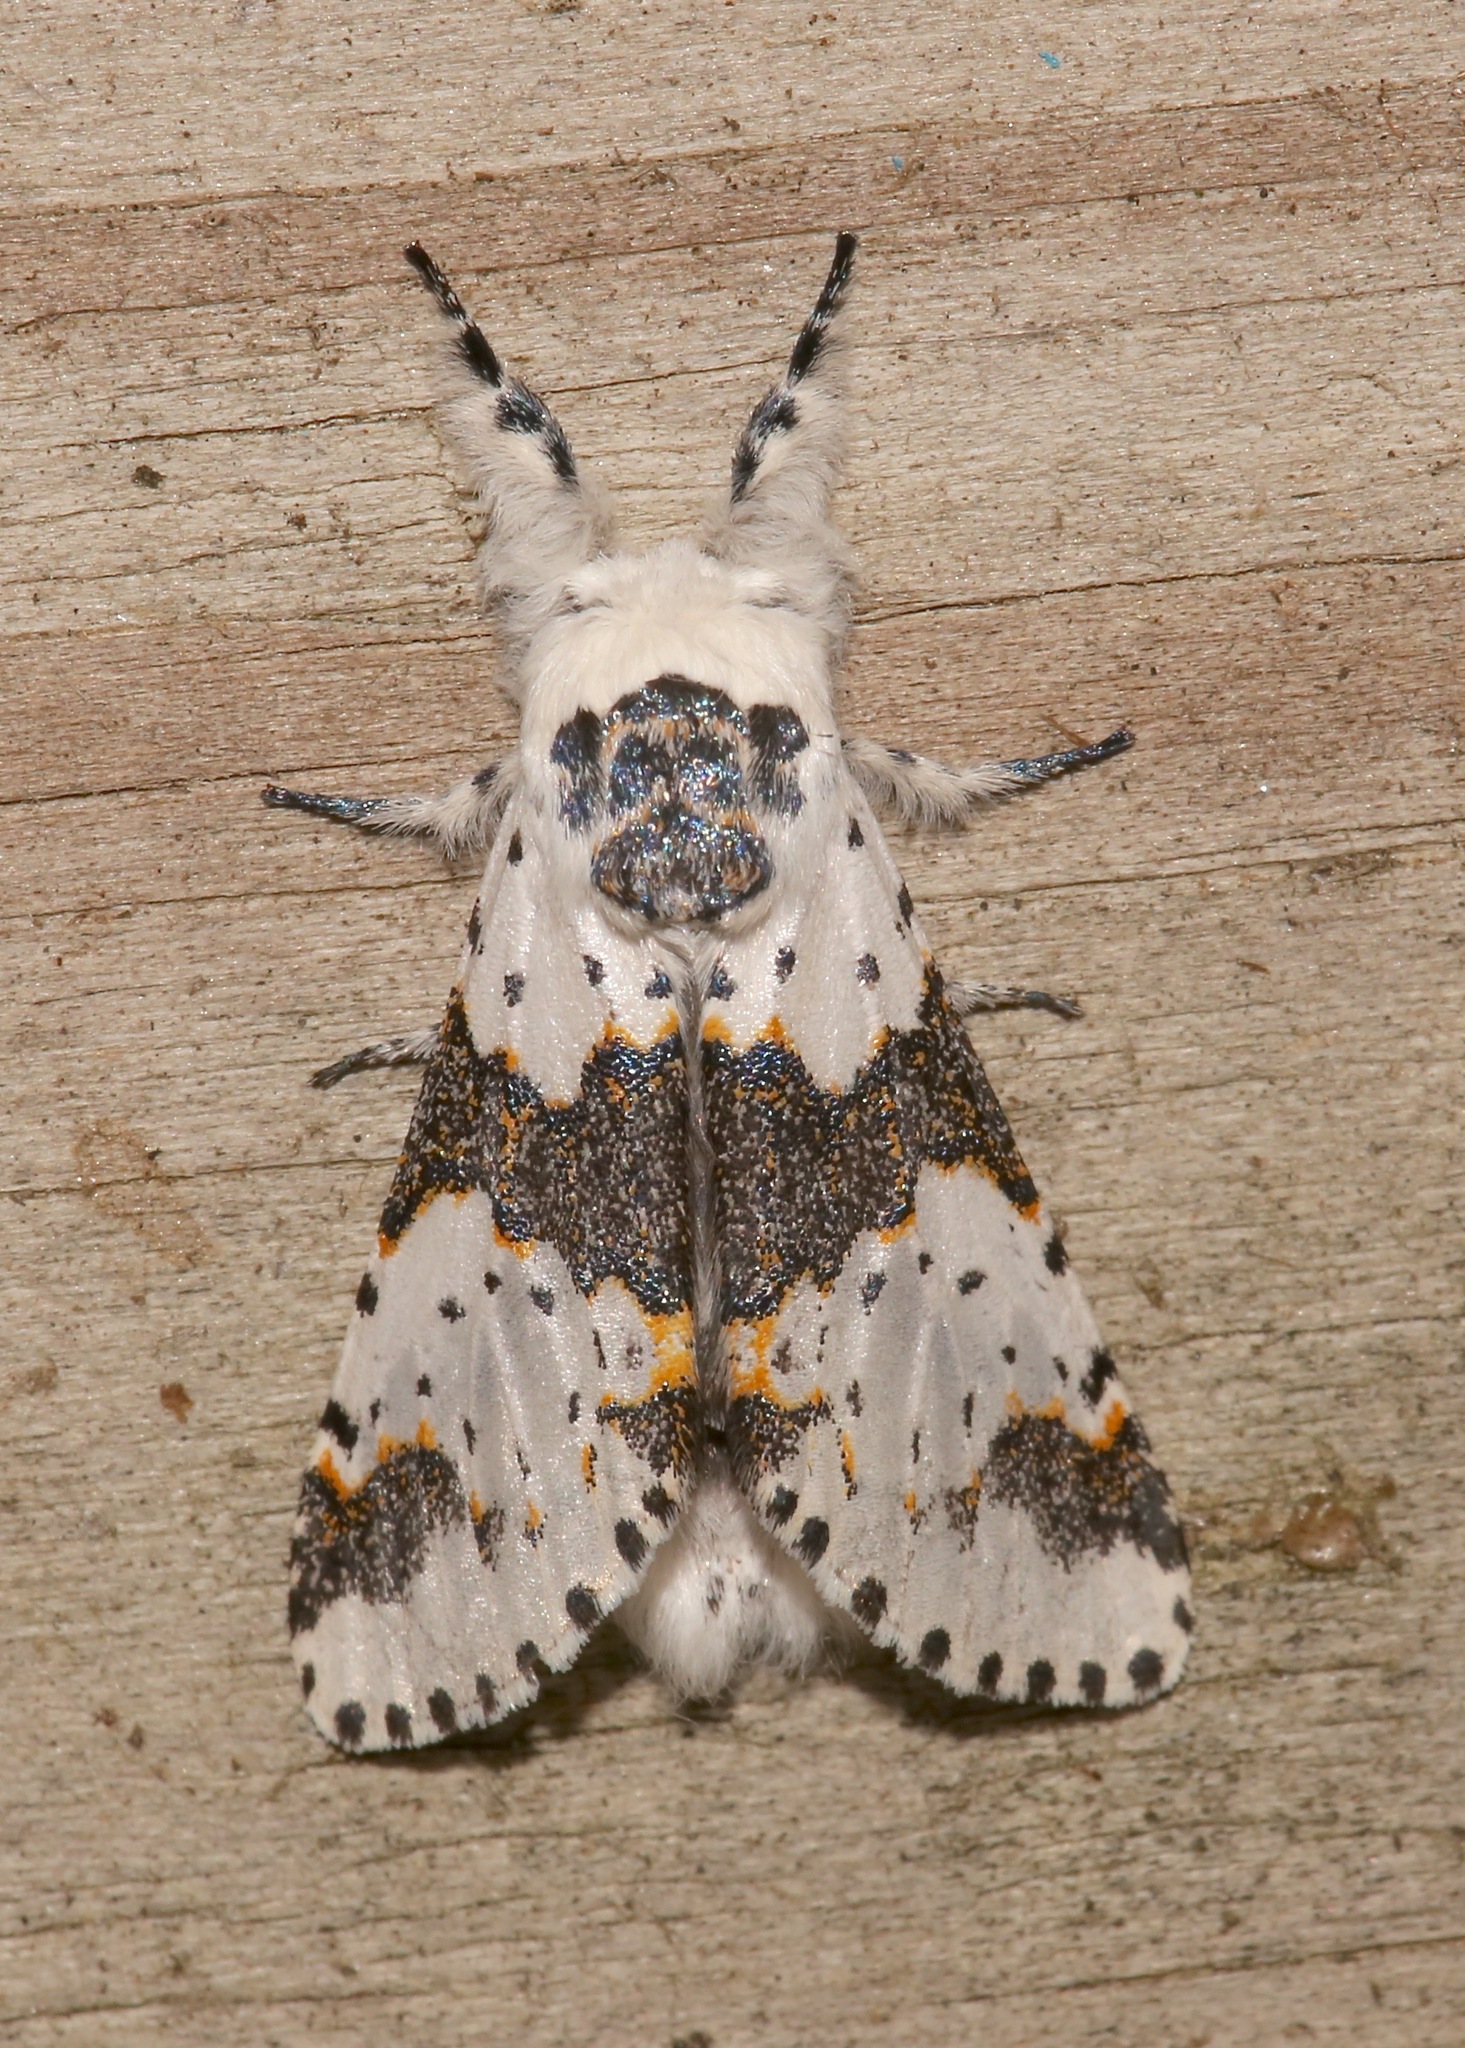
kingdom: Animalia
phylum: Arthropoda
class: Insecta
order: Lepidoptera
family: Notodontidae
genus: Furcula
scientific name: Furcula borealis
